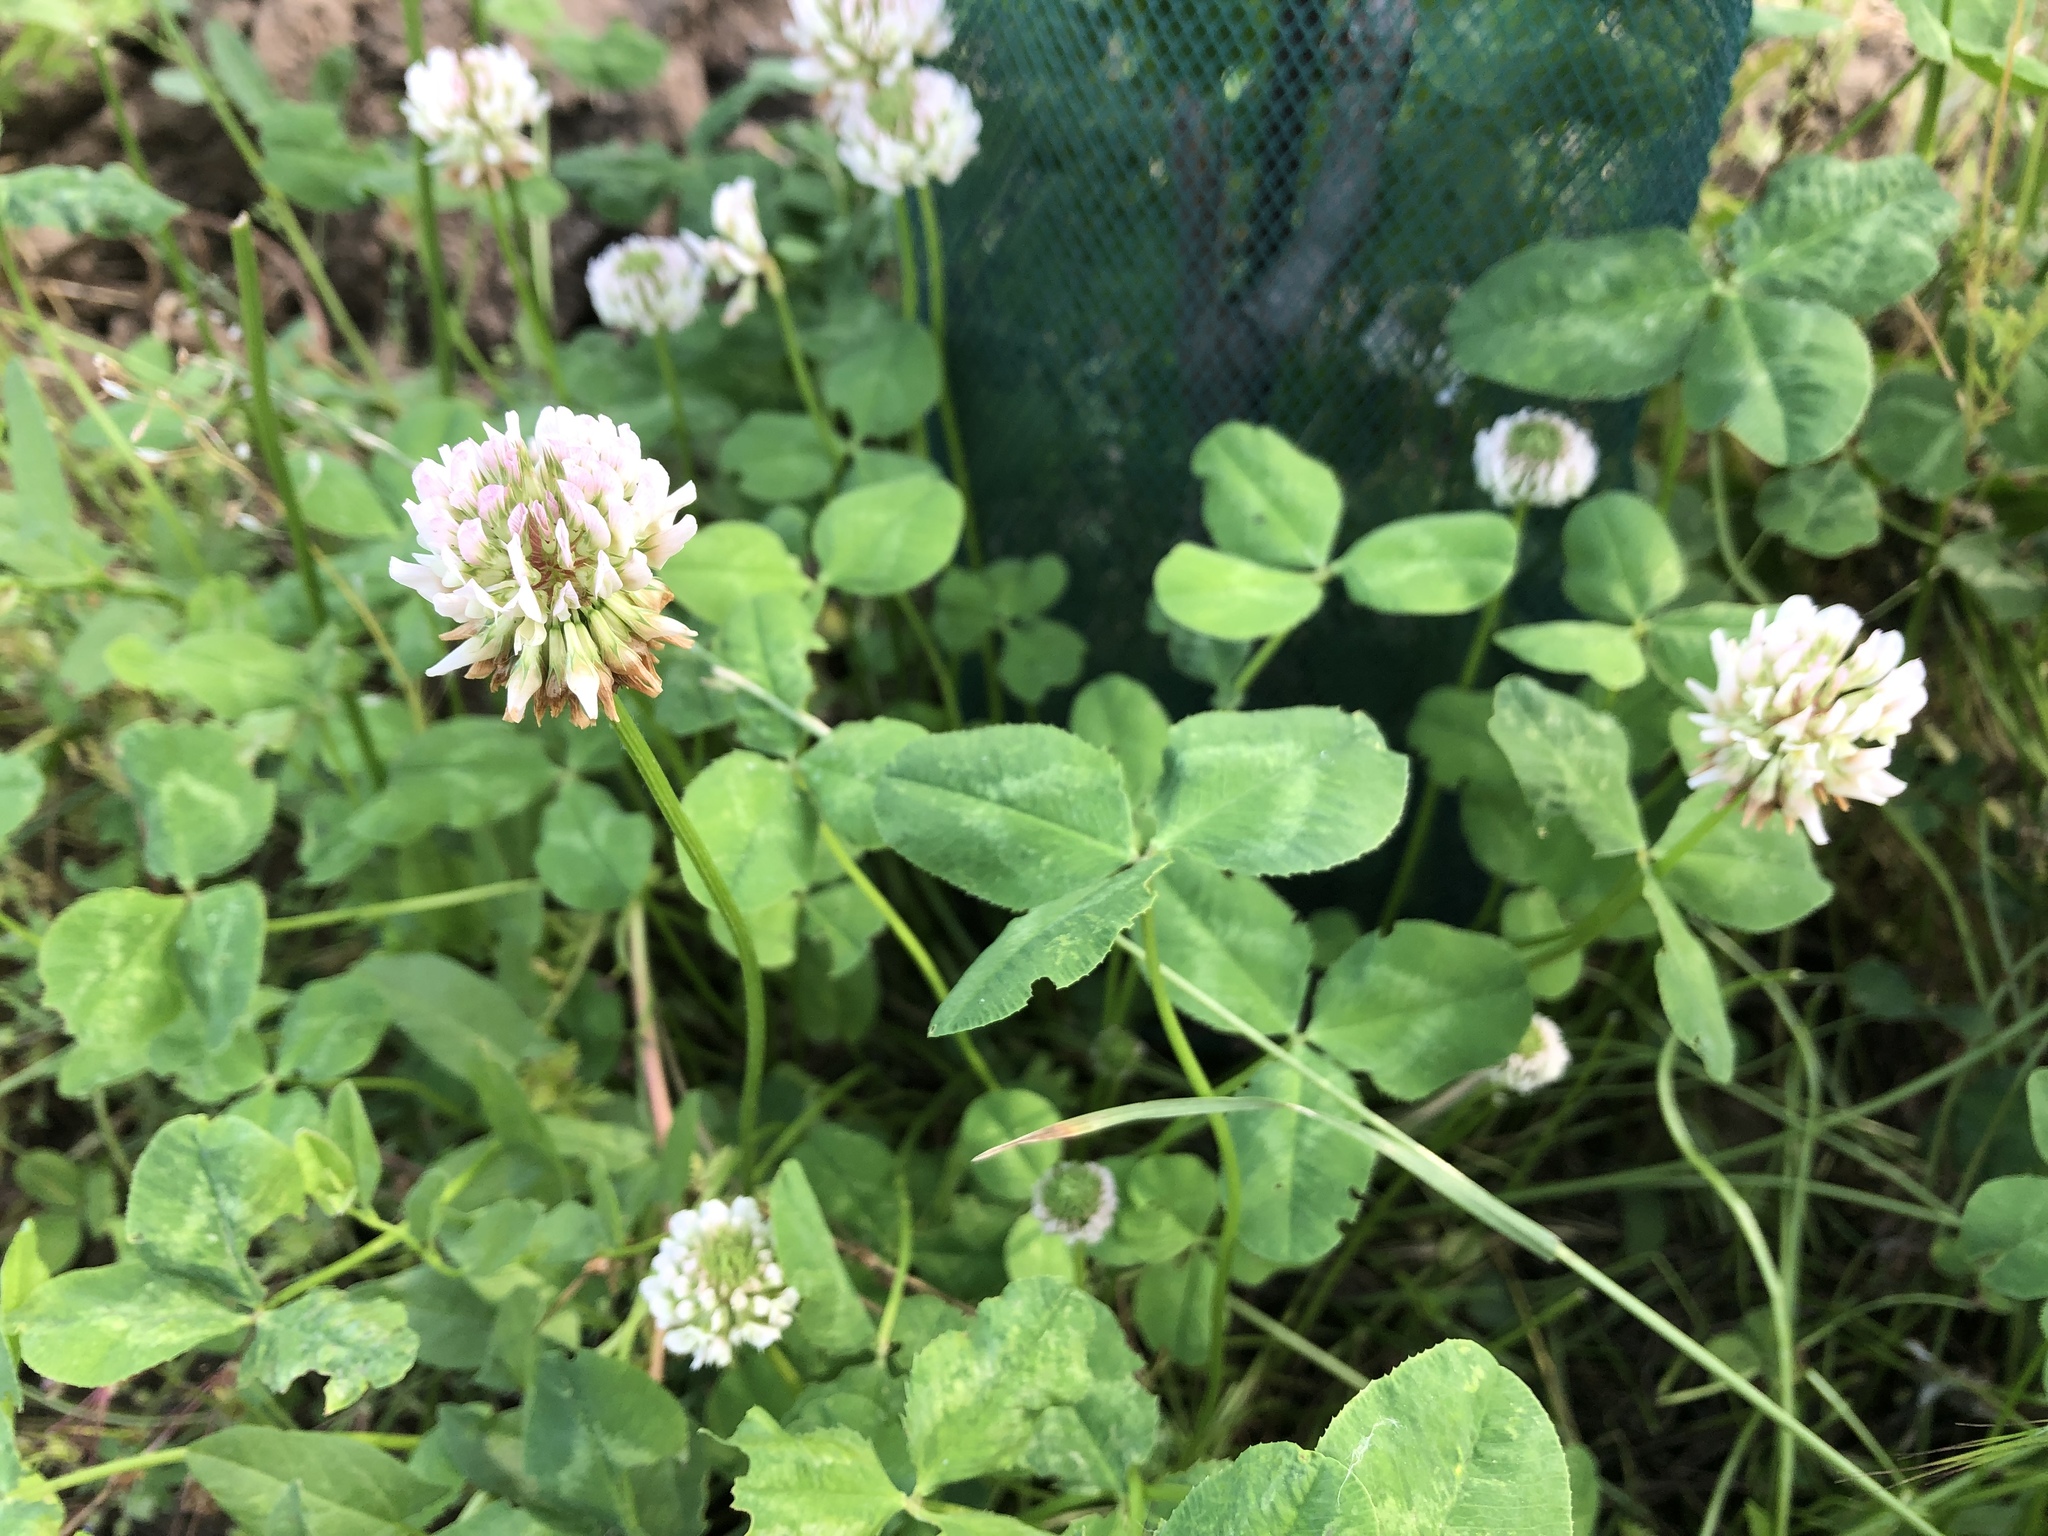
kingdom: Plantae
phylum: Tracheophyta
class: Magnoliopsida
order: Fabales
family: Fabaceae
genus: Trifolium
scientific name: Trifolium repens
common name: White clover
